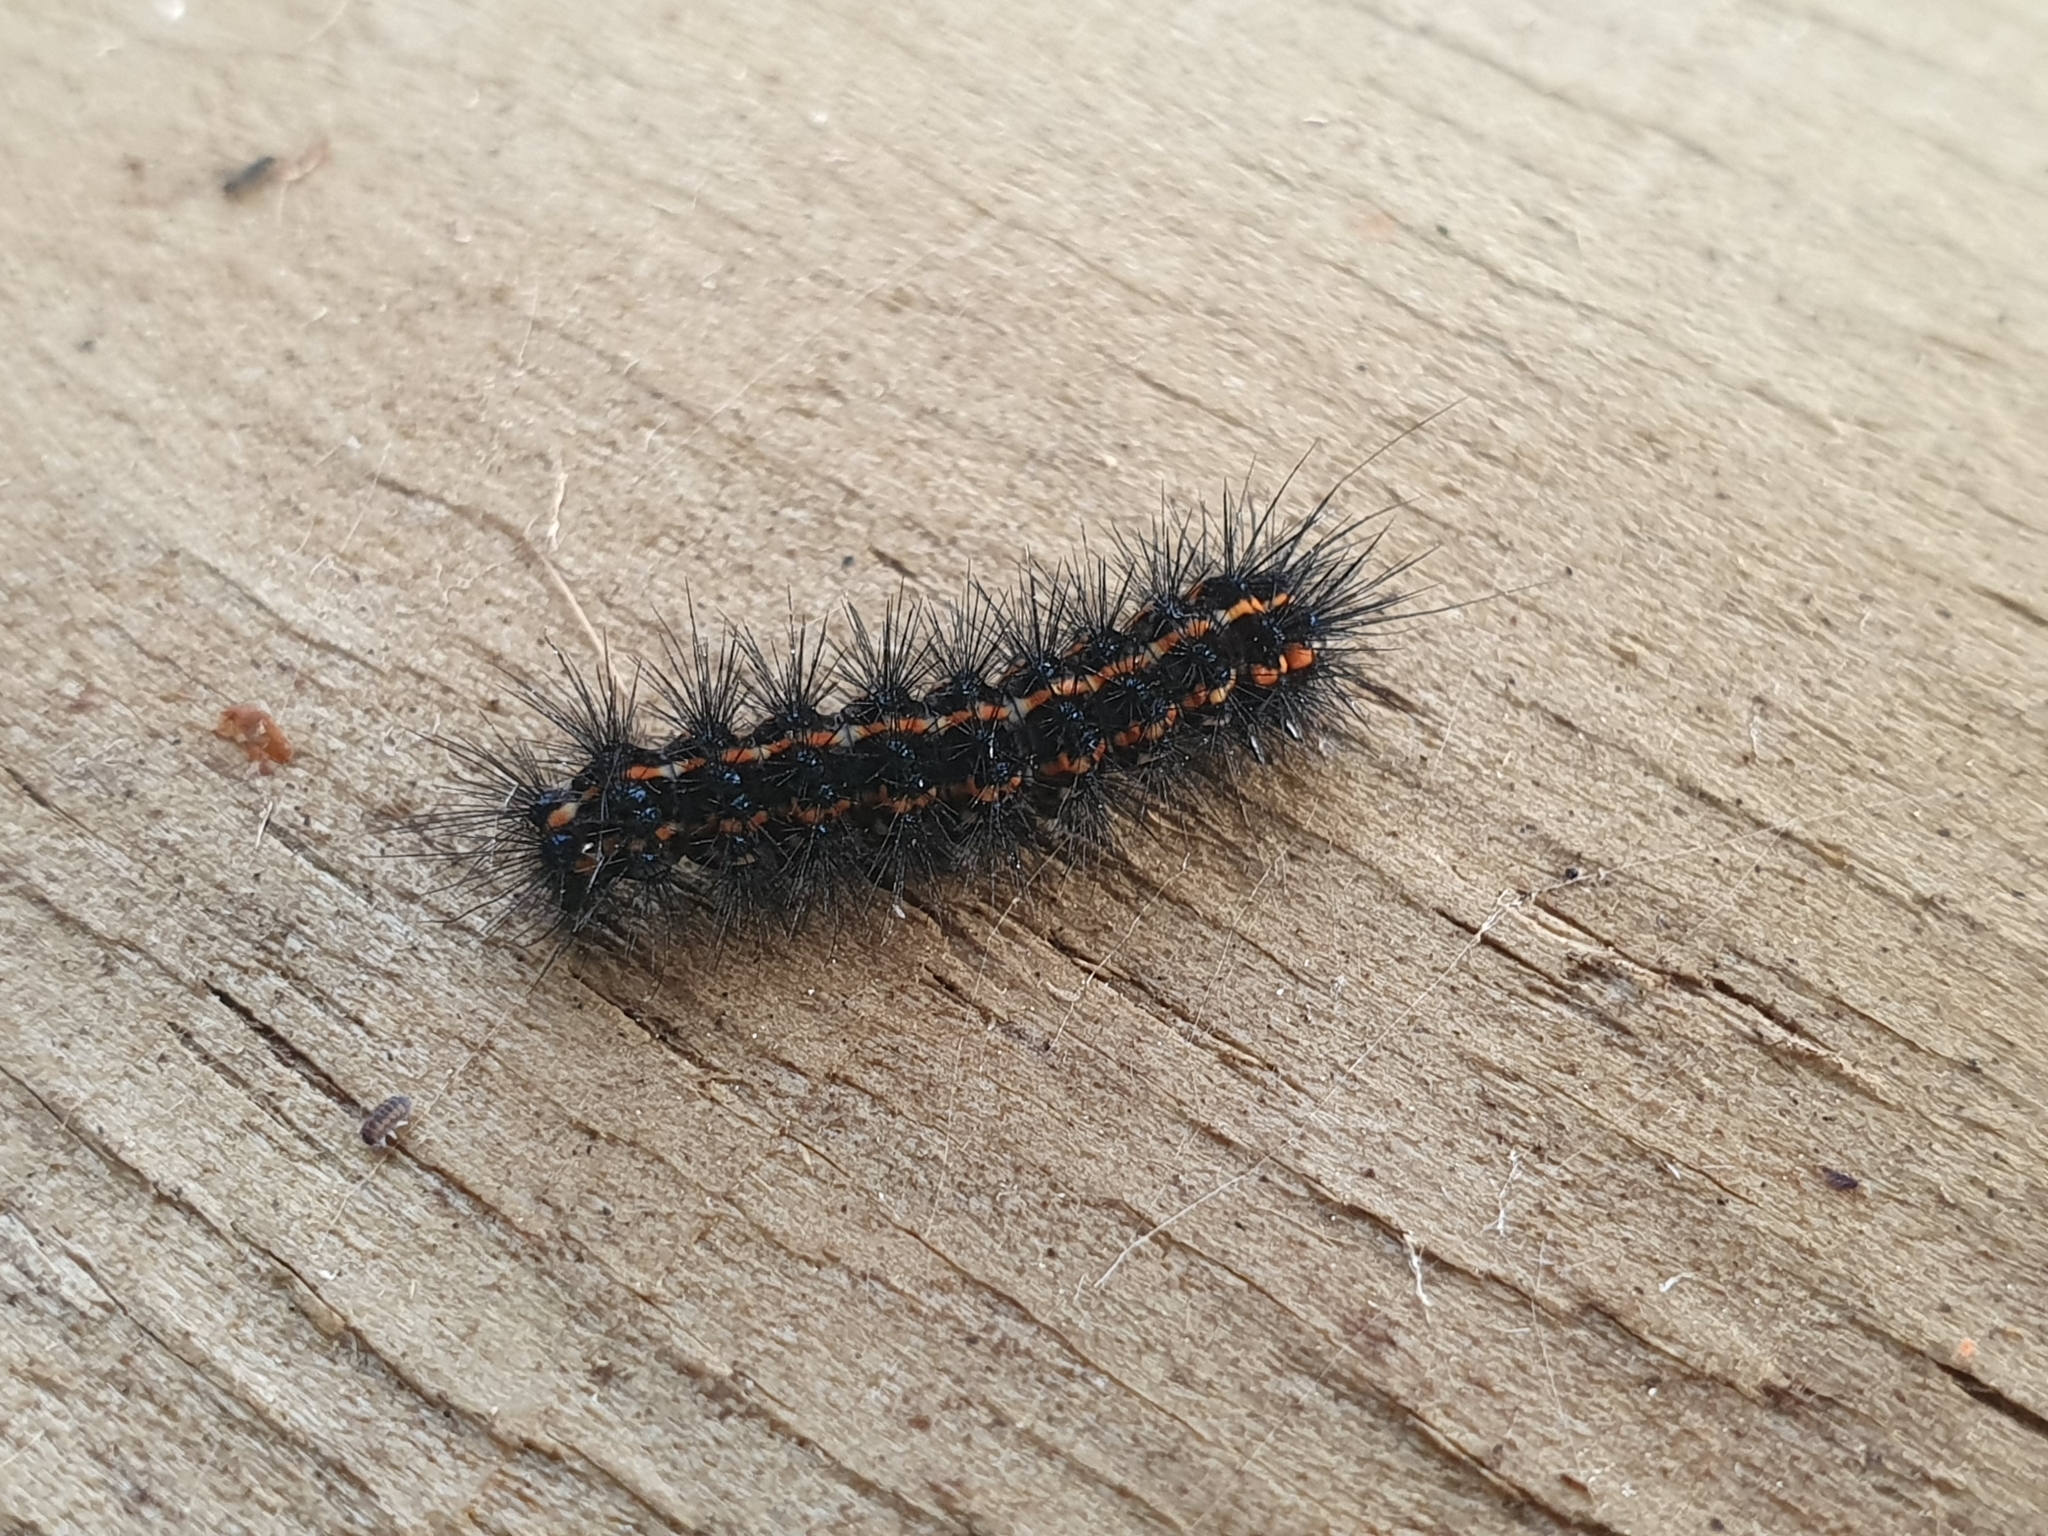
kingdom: Animalia
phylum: Arthropoda
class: Insecta
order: Lepidoptera
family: Erebidae
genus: Nyctemera
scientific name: Nyctemera annulatum
